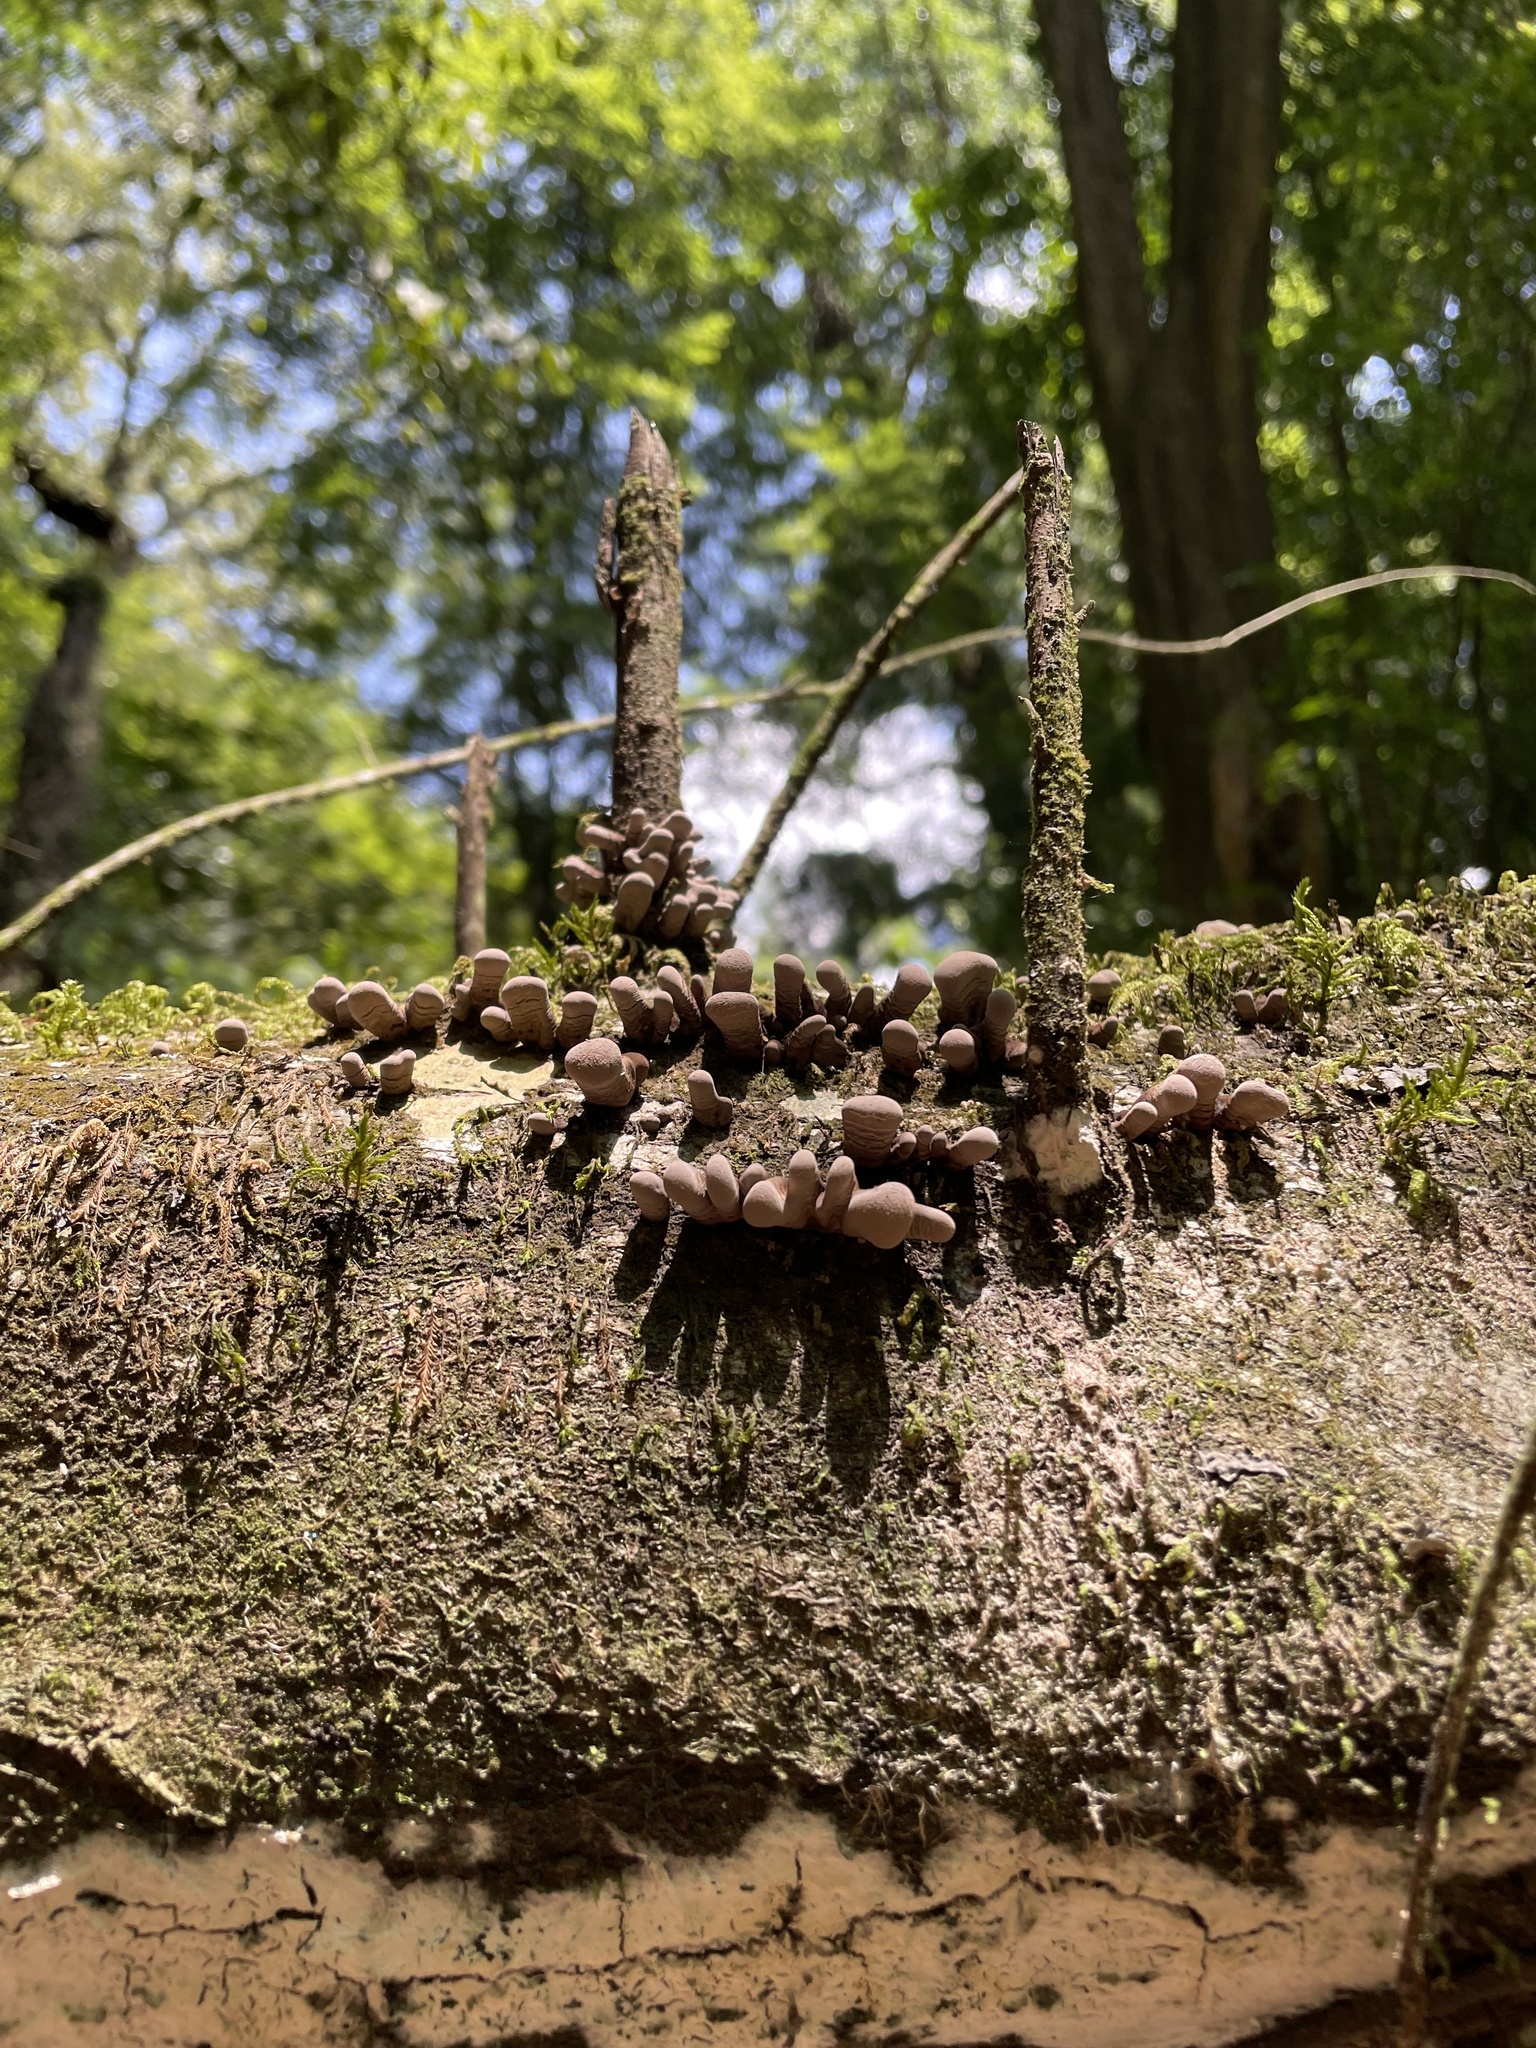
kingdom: Fungi
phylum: Ascomycota
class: Sordariomycetes
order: Xylariales
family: Xylariaceae
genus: Xylaria
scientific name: Xylaria polymorpha
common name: Dead man's fingers
